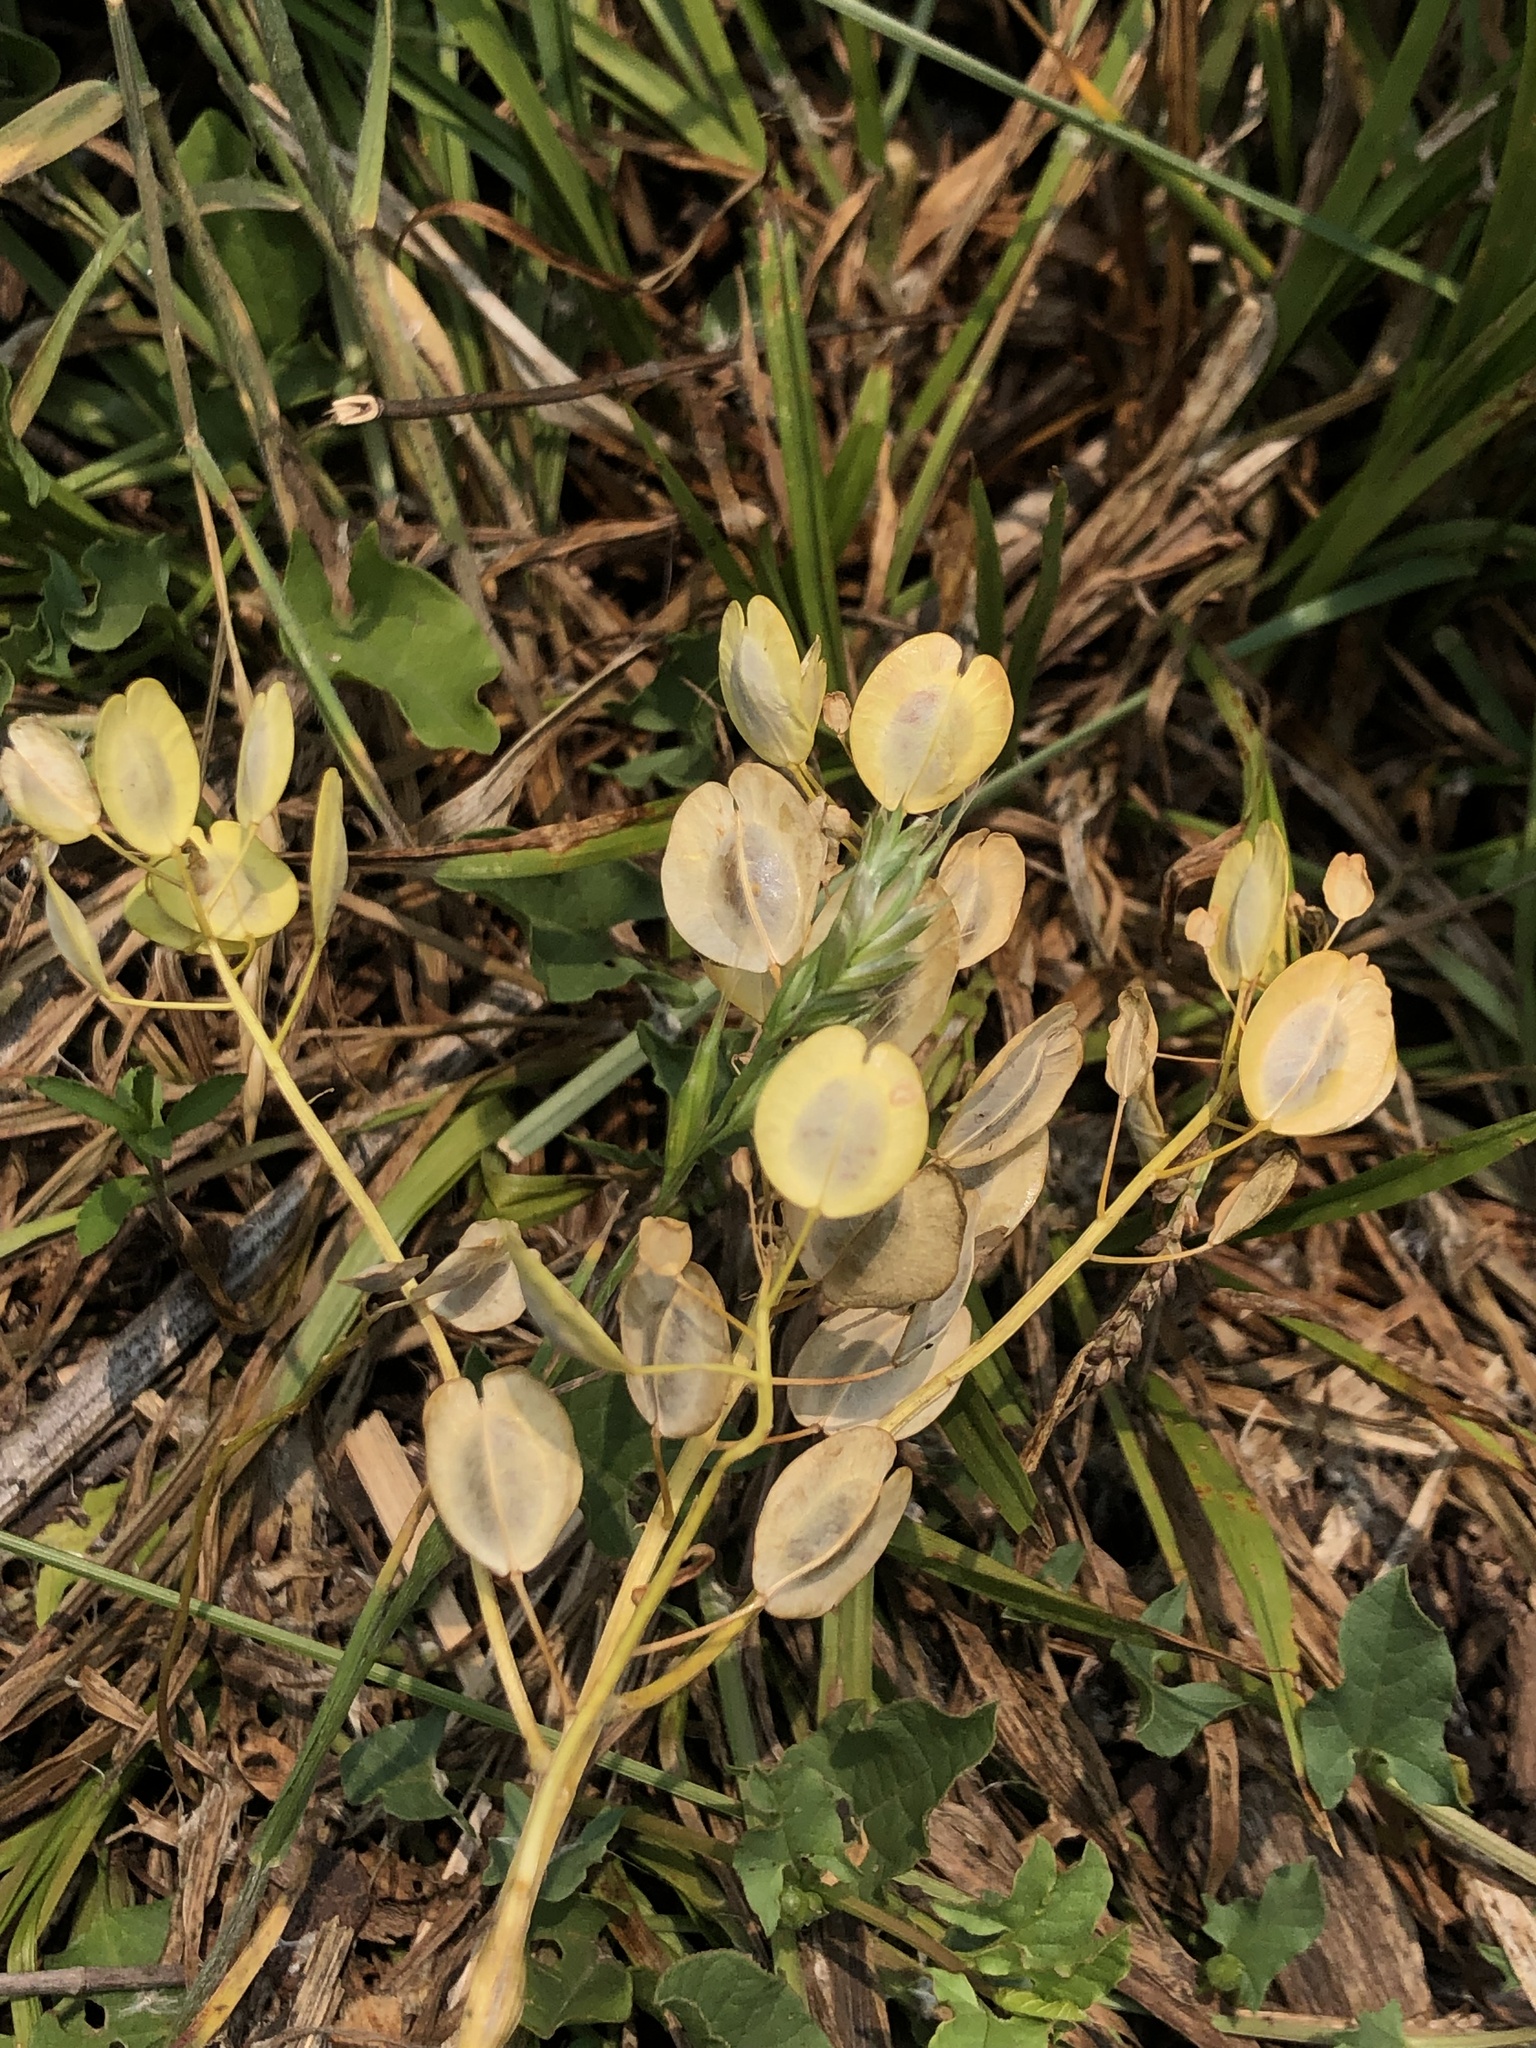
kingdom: Plantae
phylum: Tracheophyta
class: Magnoliopsida
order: Brassicales
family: Brassicaceae
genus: Thlaspi
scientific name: Thlaspi arvense
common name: Field pennycress
